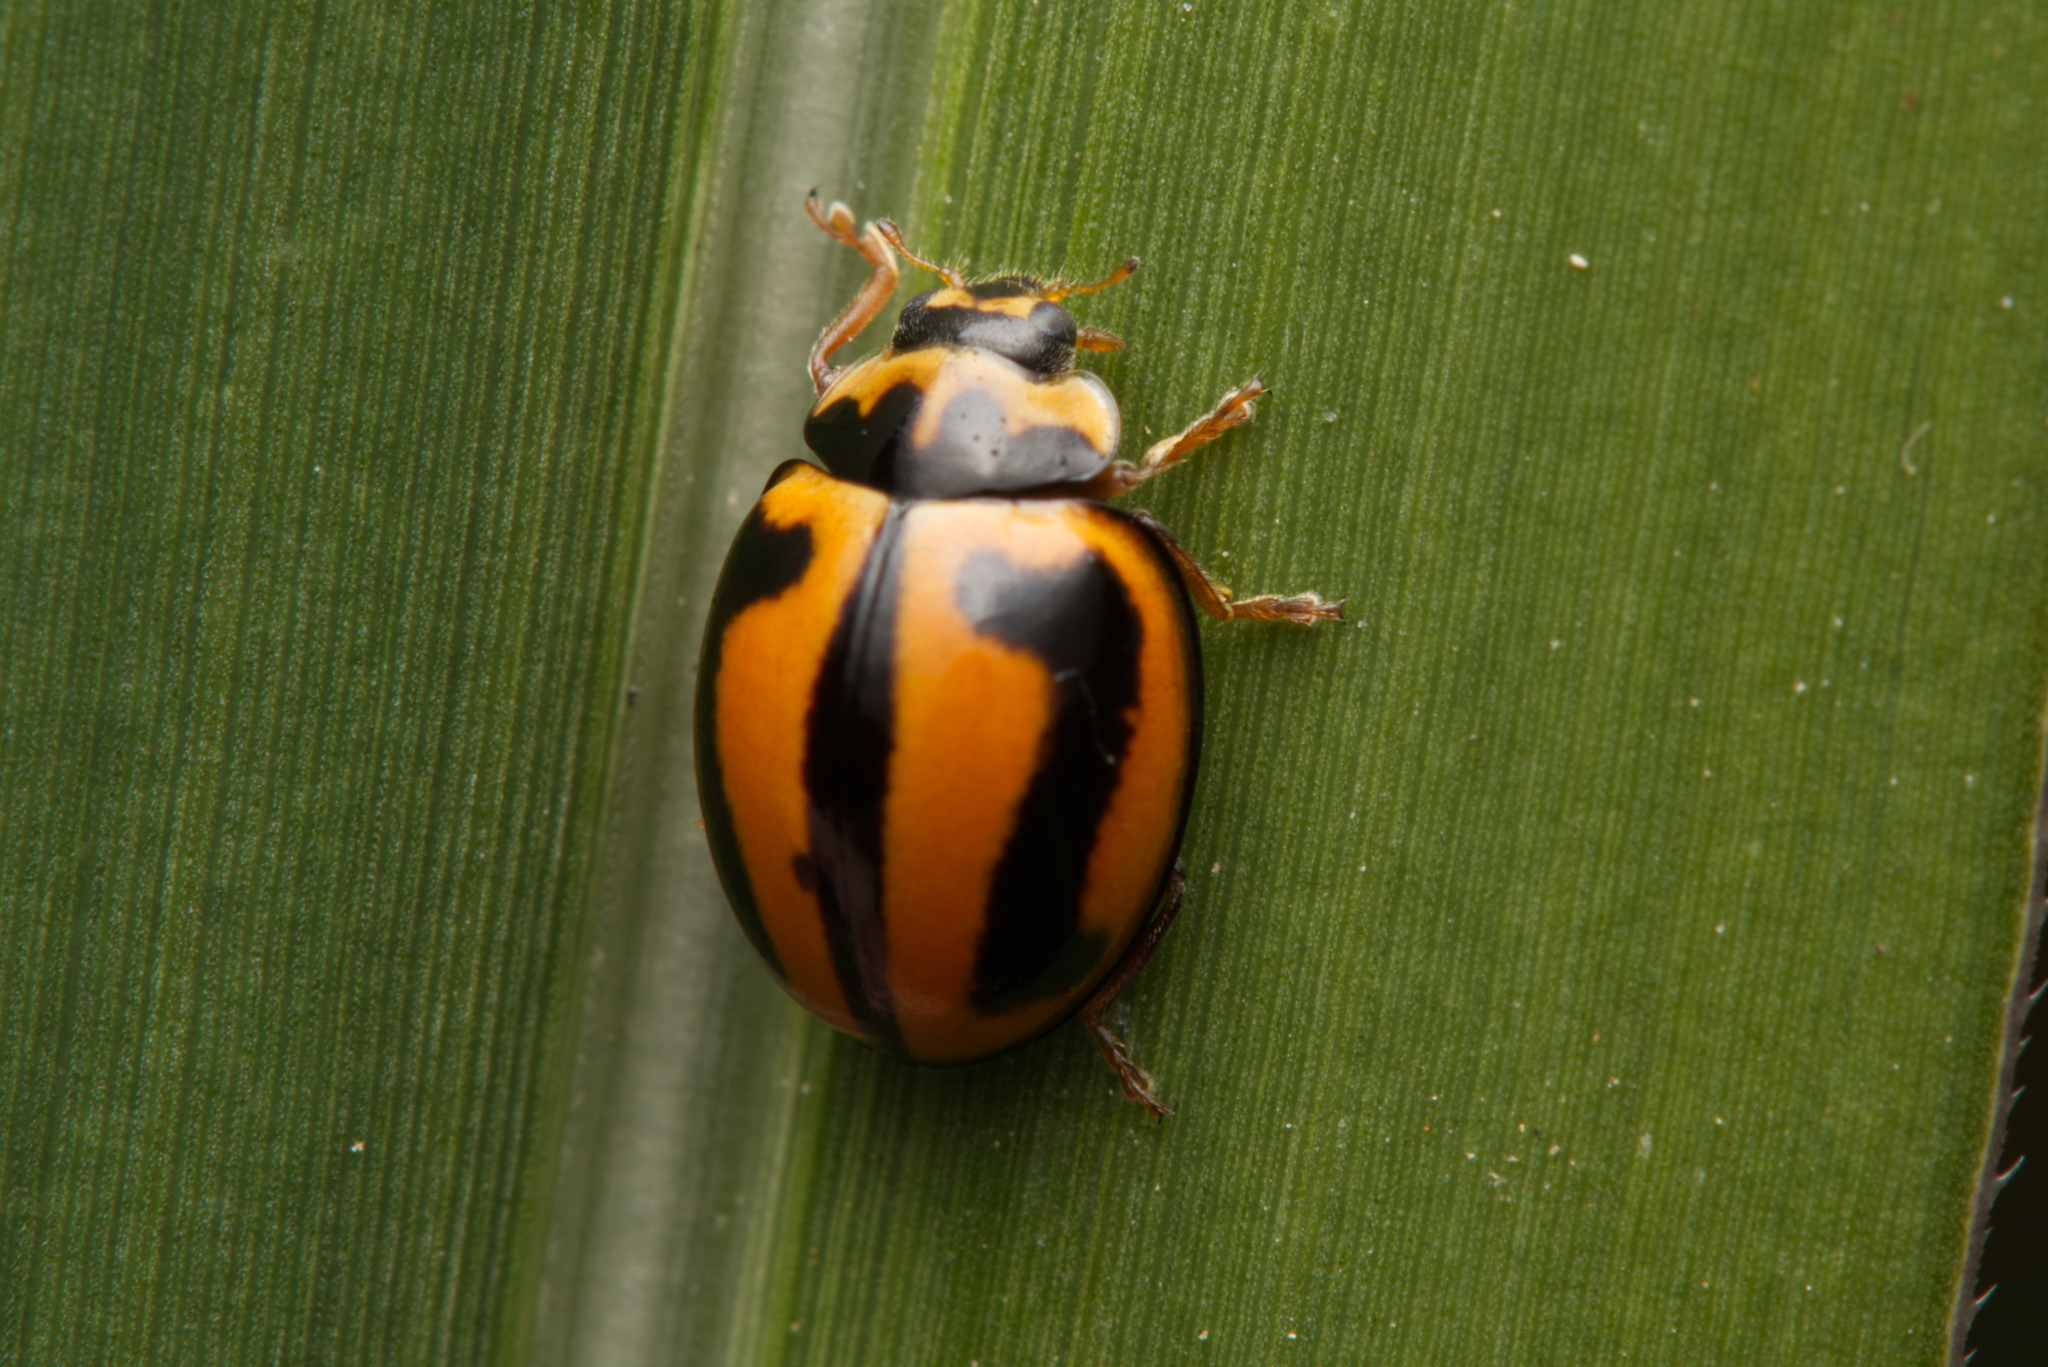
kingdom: Animalia
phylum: Arthropoda
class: Insecta
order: Coleoptera
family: Coccinellidae
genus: Micraspis
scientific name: Micraspis frenata
